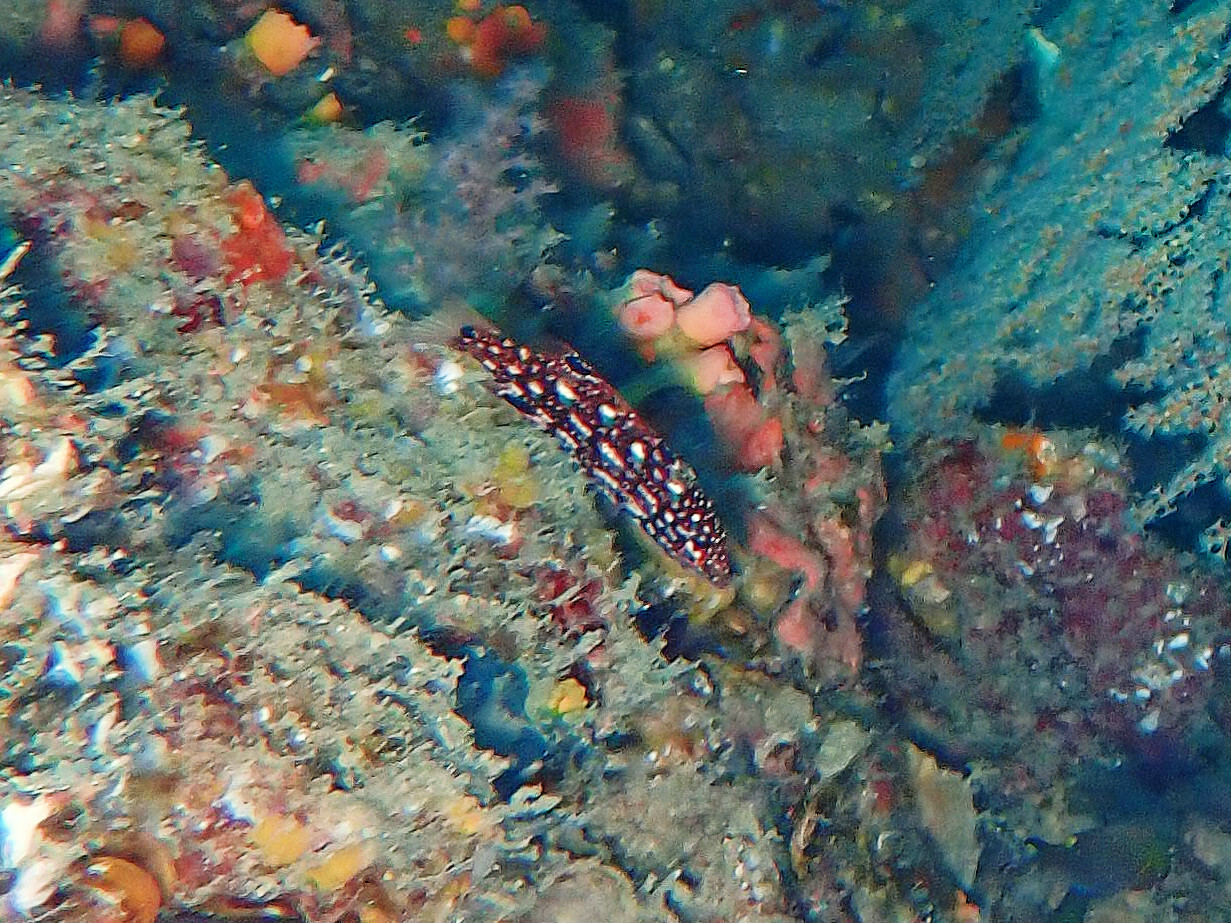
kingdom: Animalia
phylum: Chordata
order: Perciformes
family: Labridae
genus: Bodianus
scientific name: Bodianus diana
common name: Diana's hogfish
